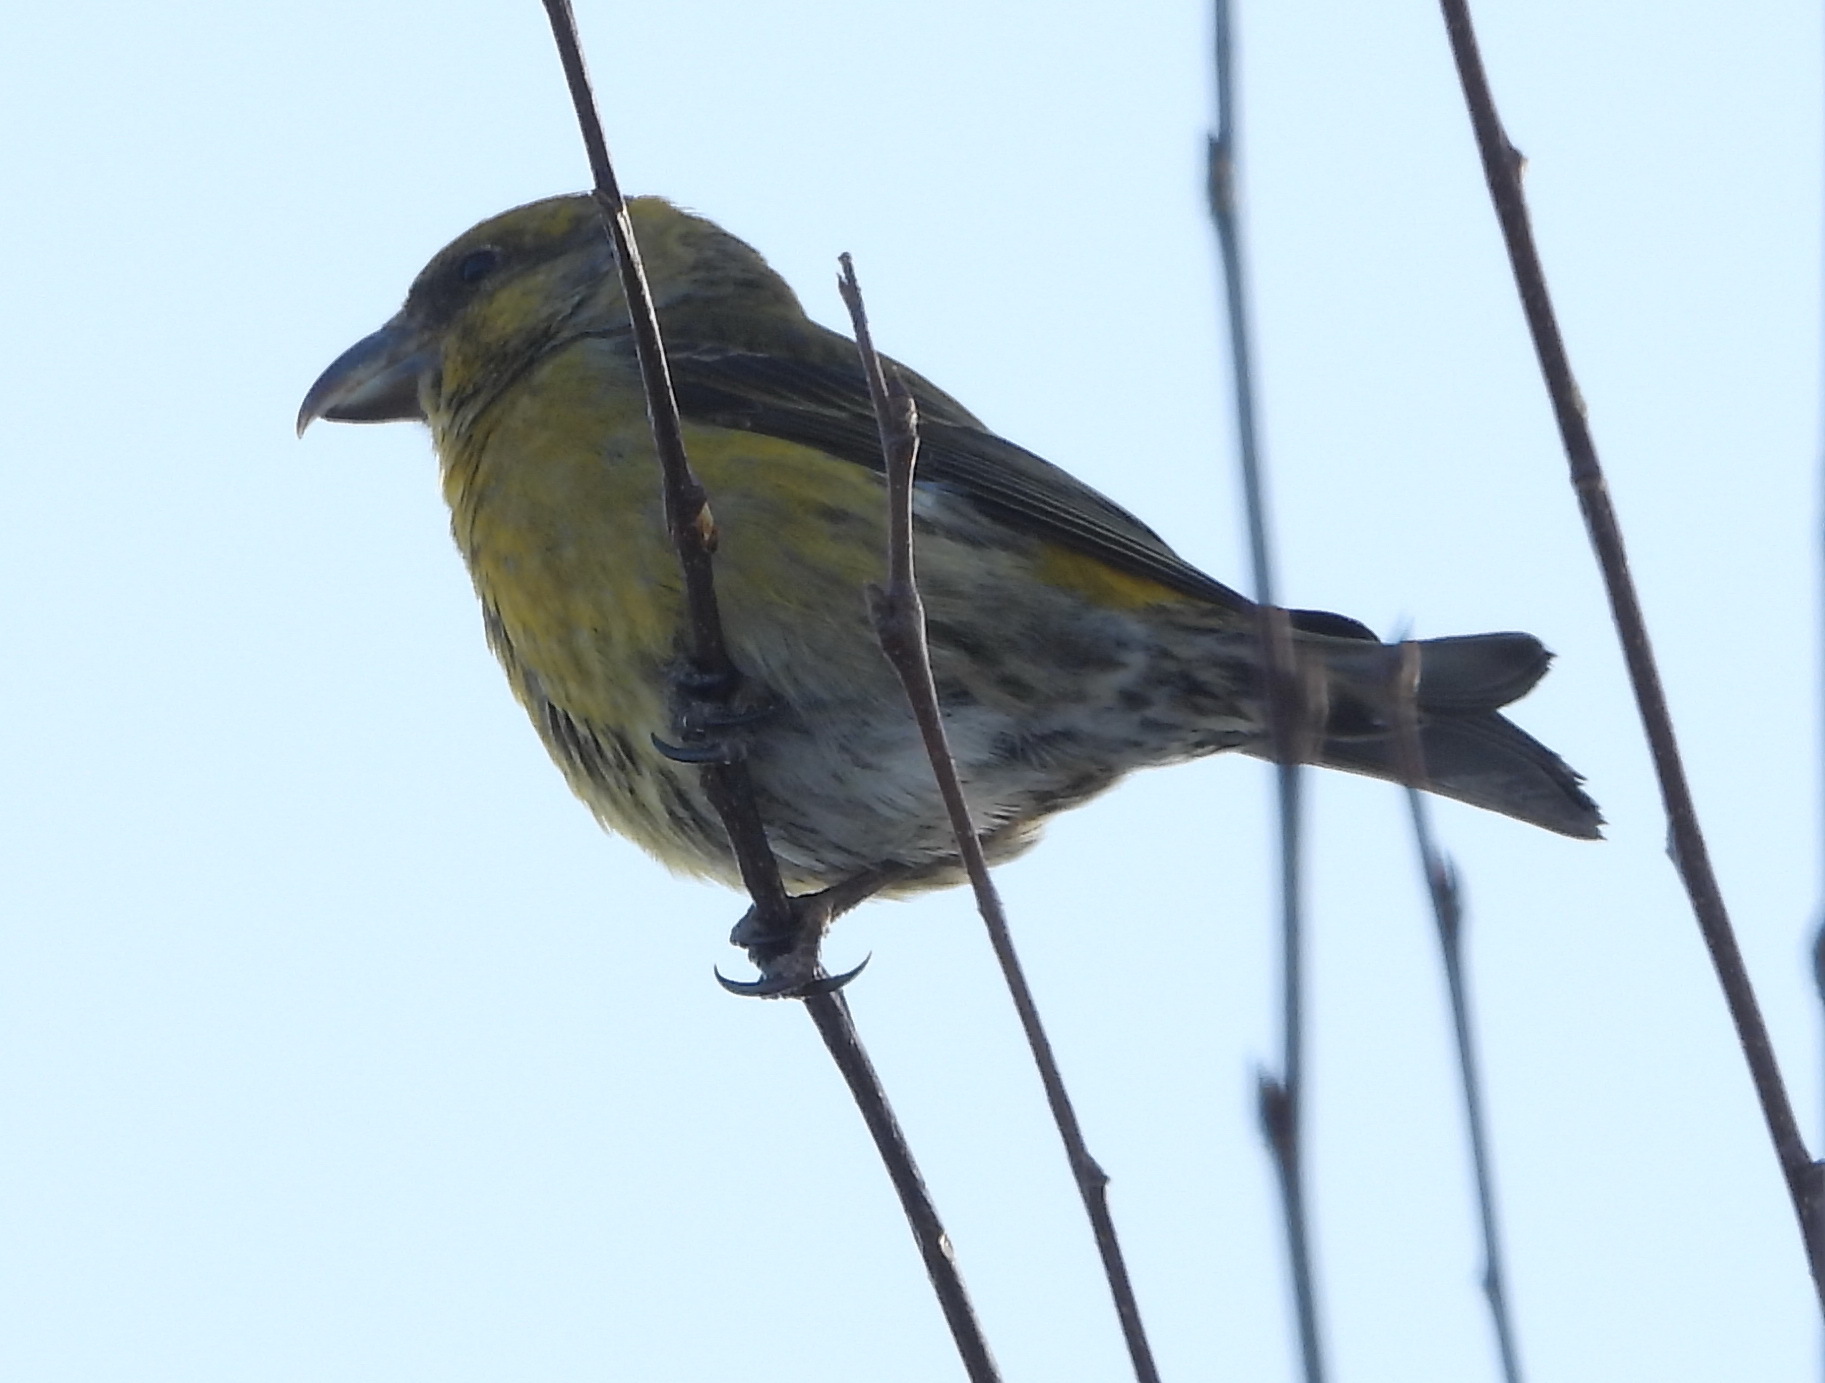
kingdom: Animalia
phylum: Chordata
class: Aves
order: Passeriformes
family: Fringillidae
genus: Loxia
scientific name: Loxia curvirostra
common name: Red crossbill
